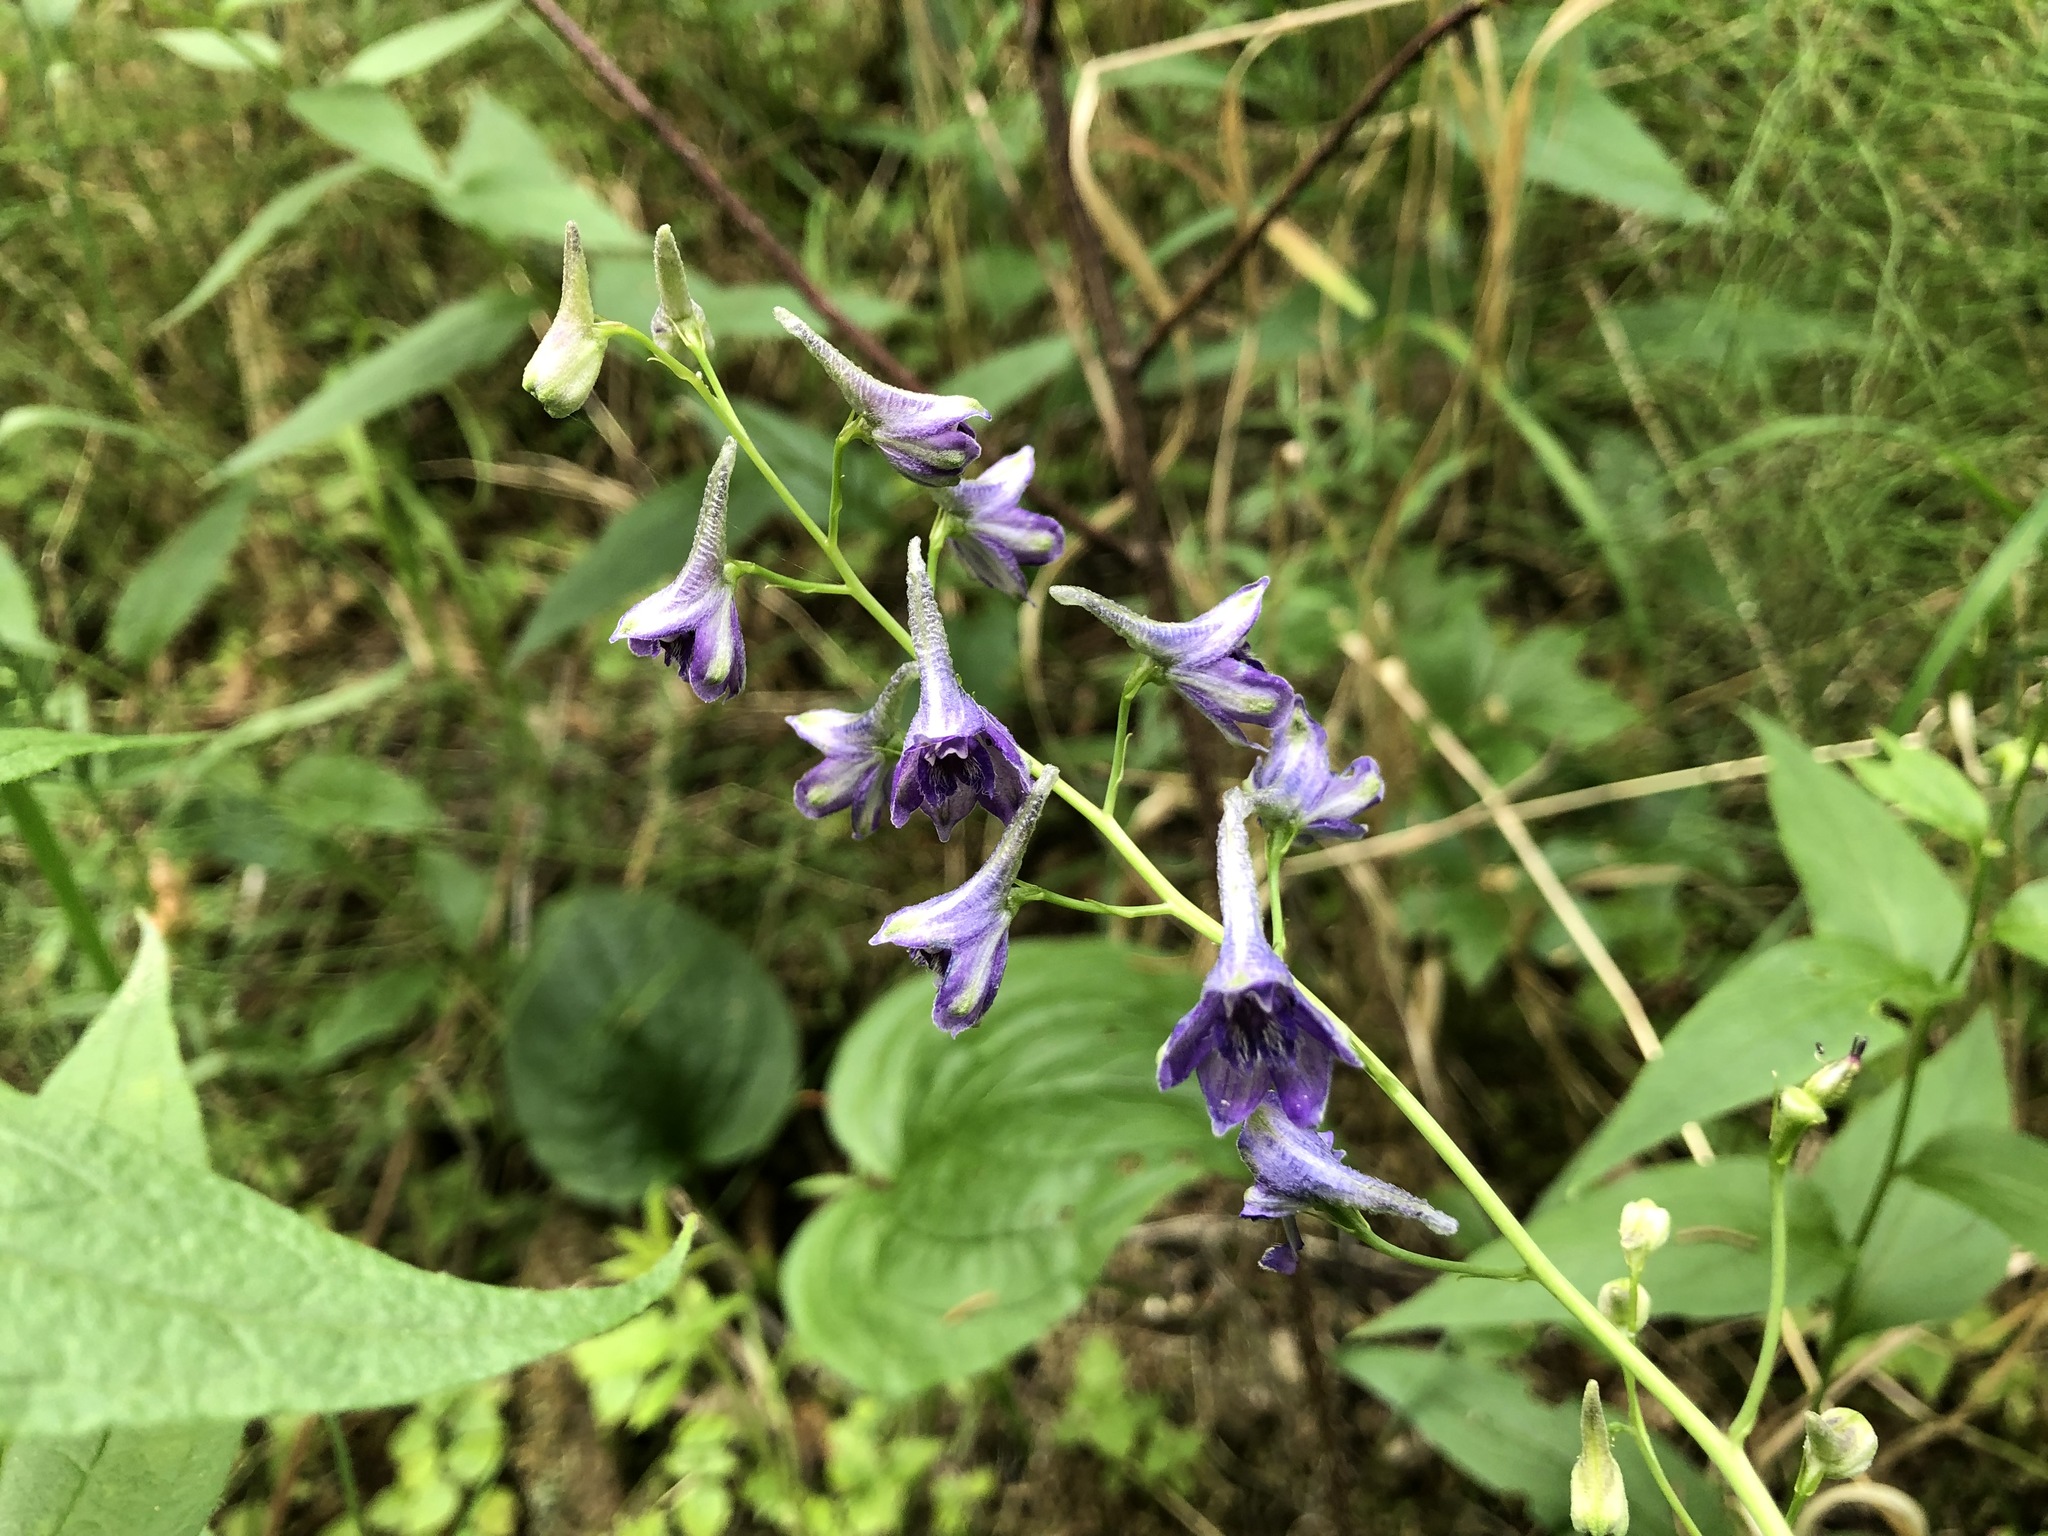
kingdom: Plantae
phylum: Tracheophyta
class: Magnoliopsida
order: Ranunculales
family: Ranunculaceae
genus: Delphinium
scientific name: Delphinium glaucum
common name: Brown's larkspur
